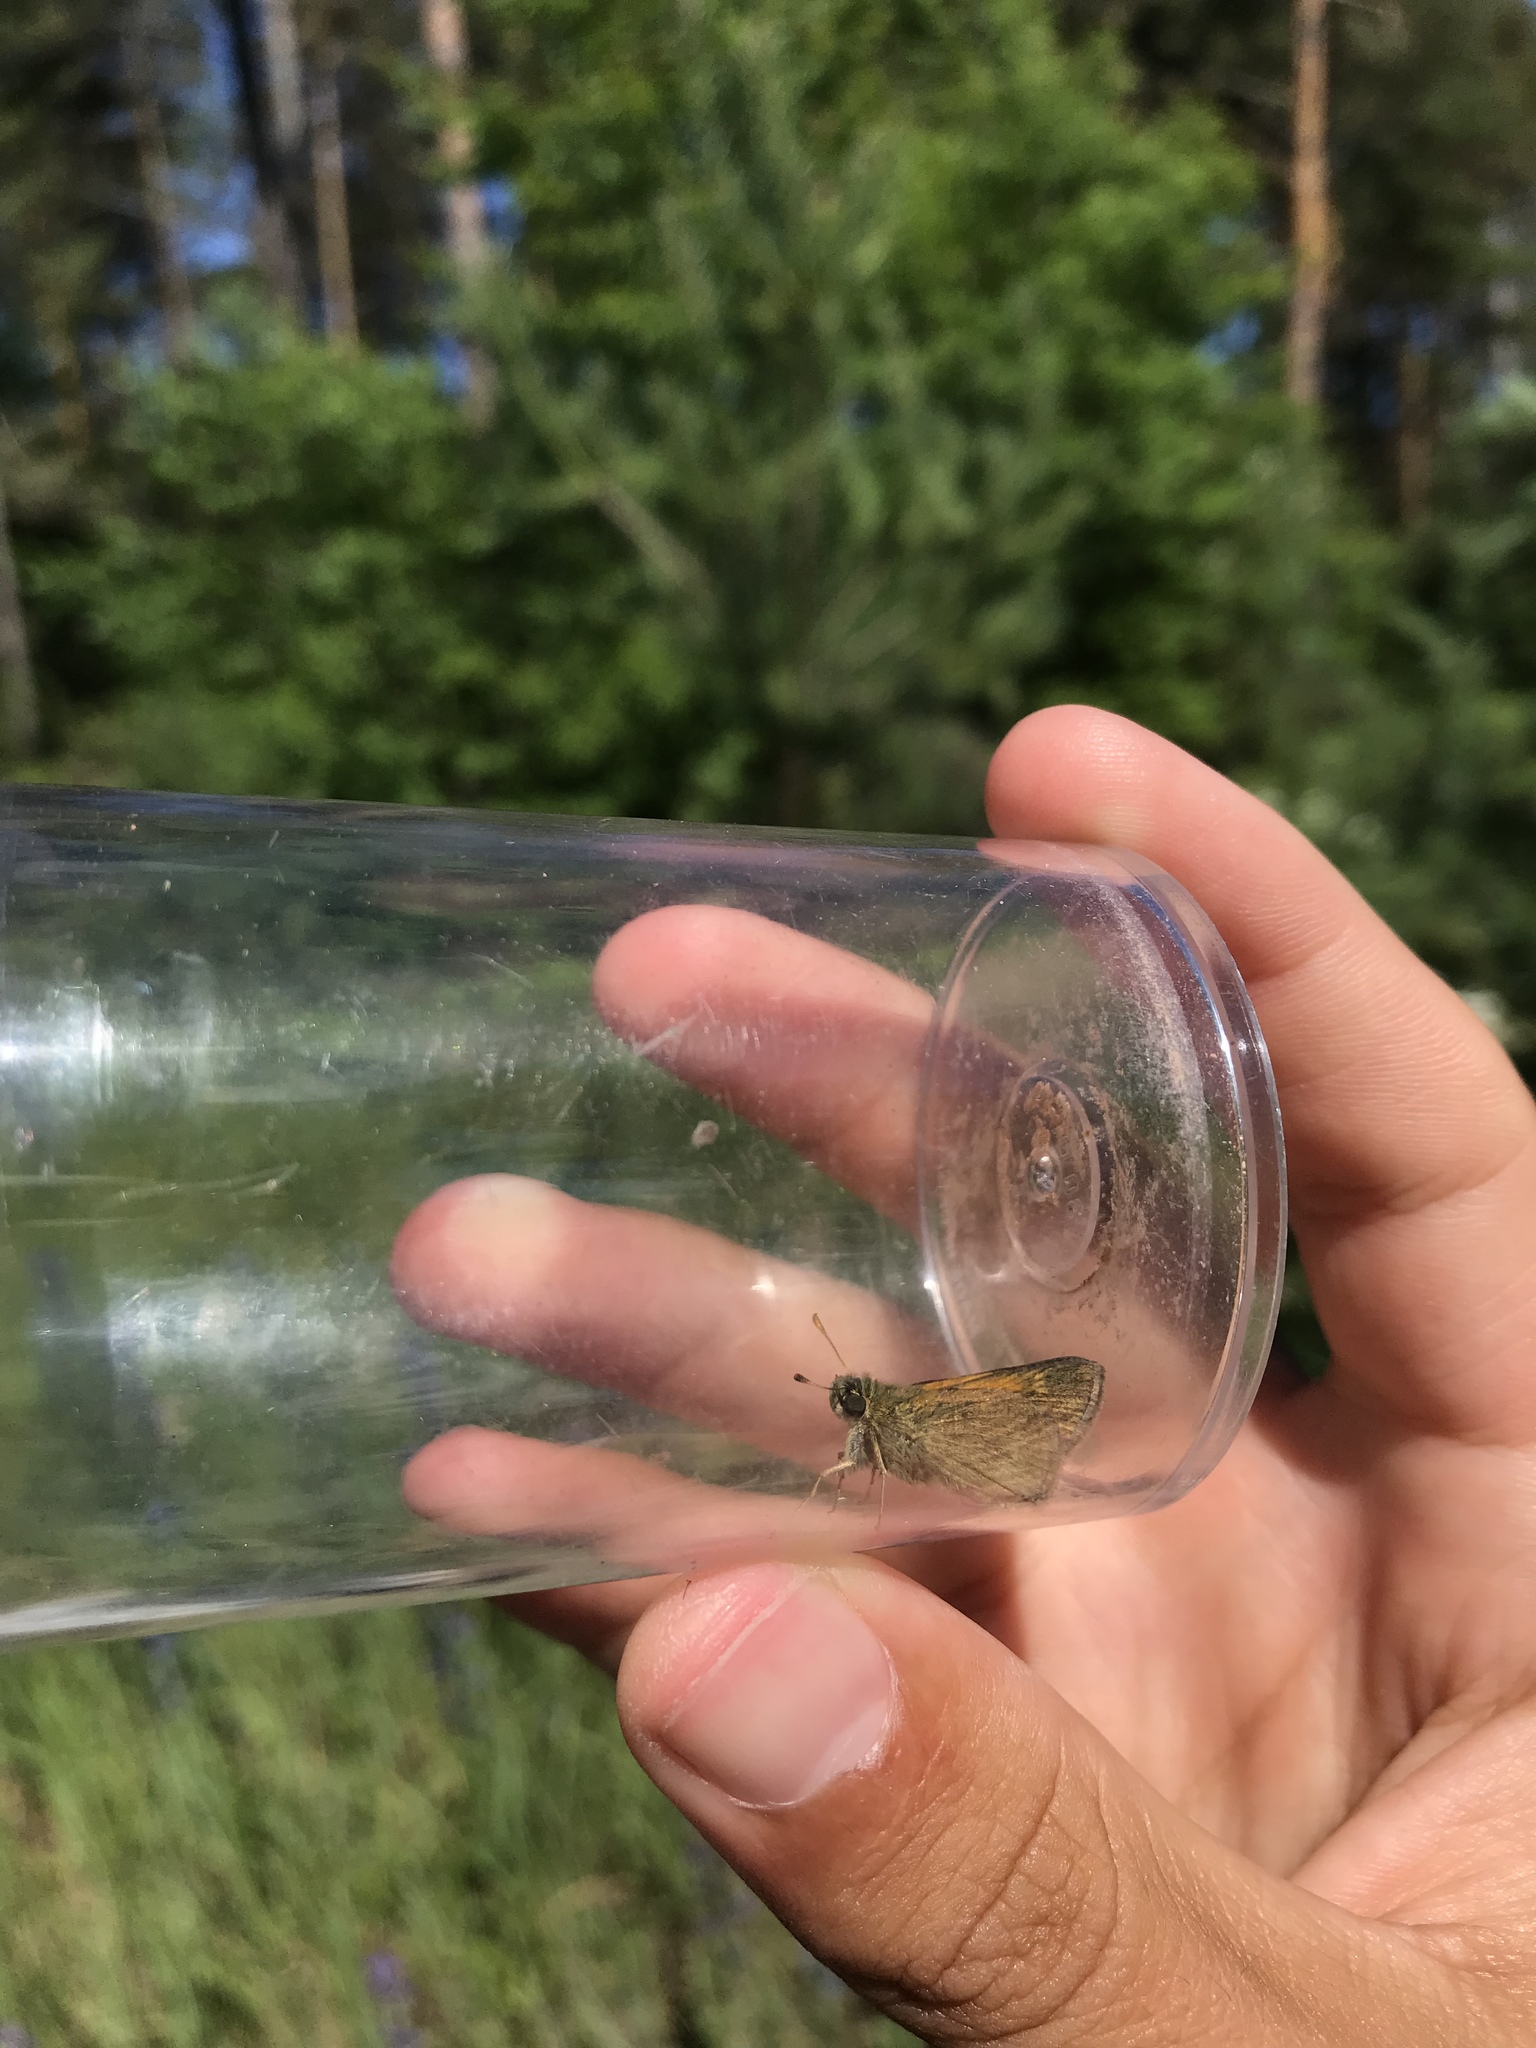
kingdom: Animalia
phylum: Arthropoda
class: Insecta
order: Lepidoptera
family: Hesperiidae
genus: Polites
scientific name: Polites themistocles
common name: Tawny-edged skipper
